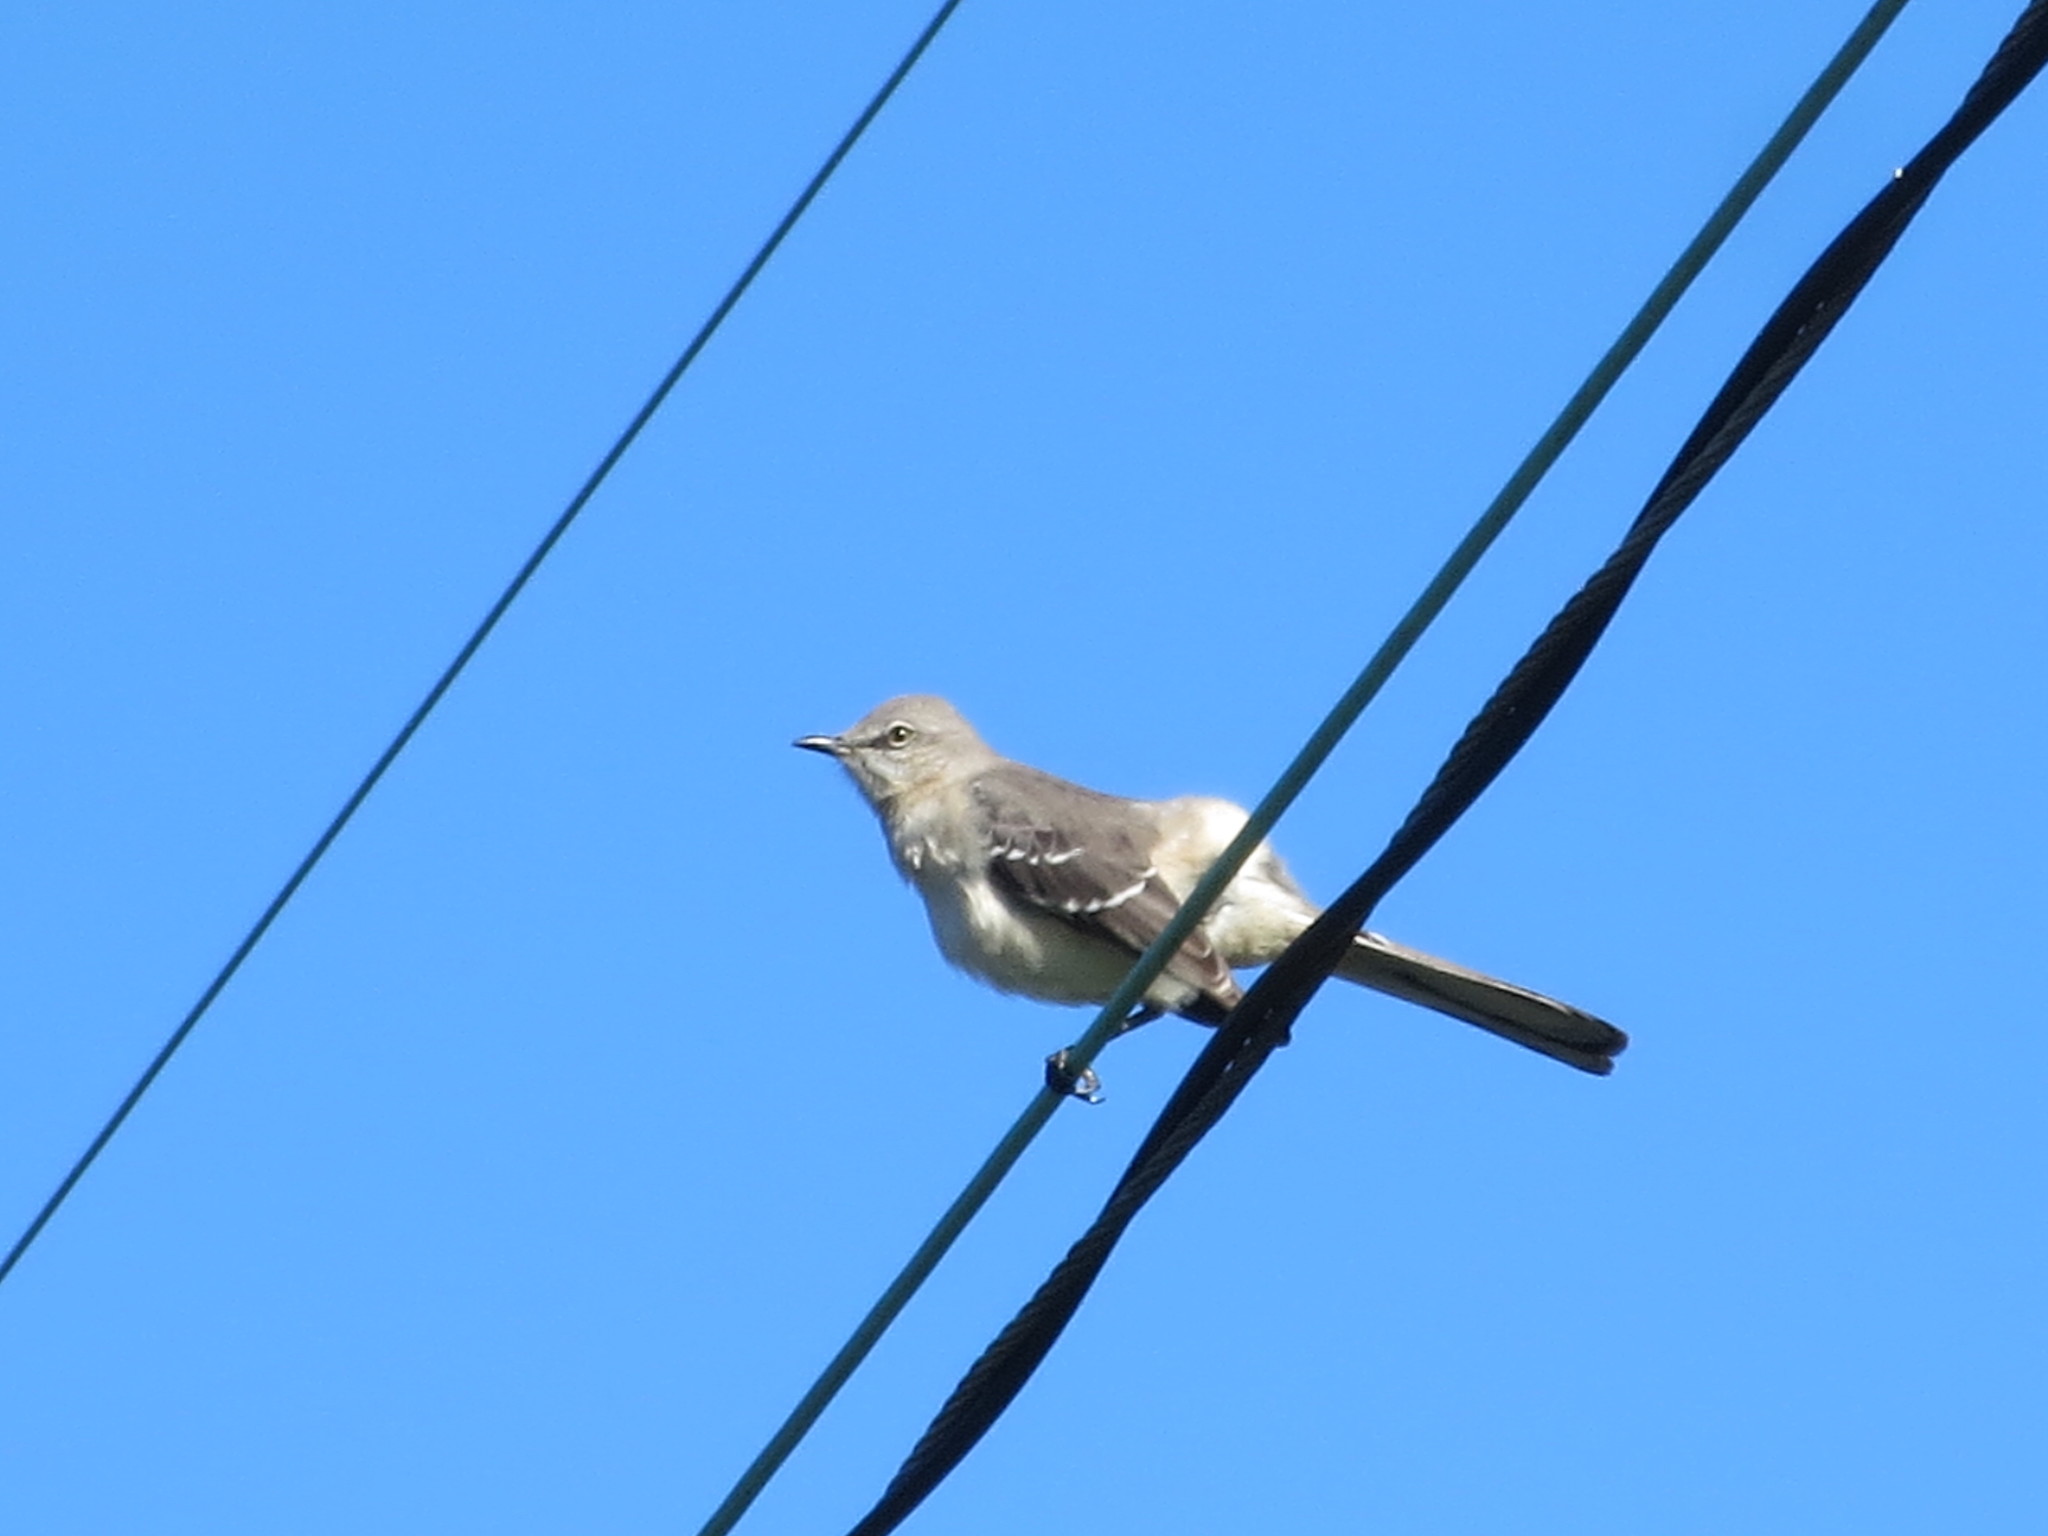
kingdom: Animalia
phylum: Chordata
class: Aves
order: Passeriformes
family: Mimidae
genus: Mimus
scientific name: Mimus polyglottos
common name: Northern mockingbird
